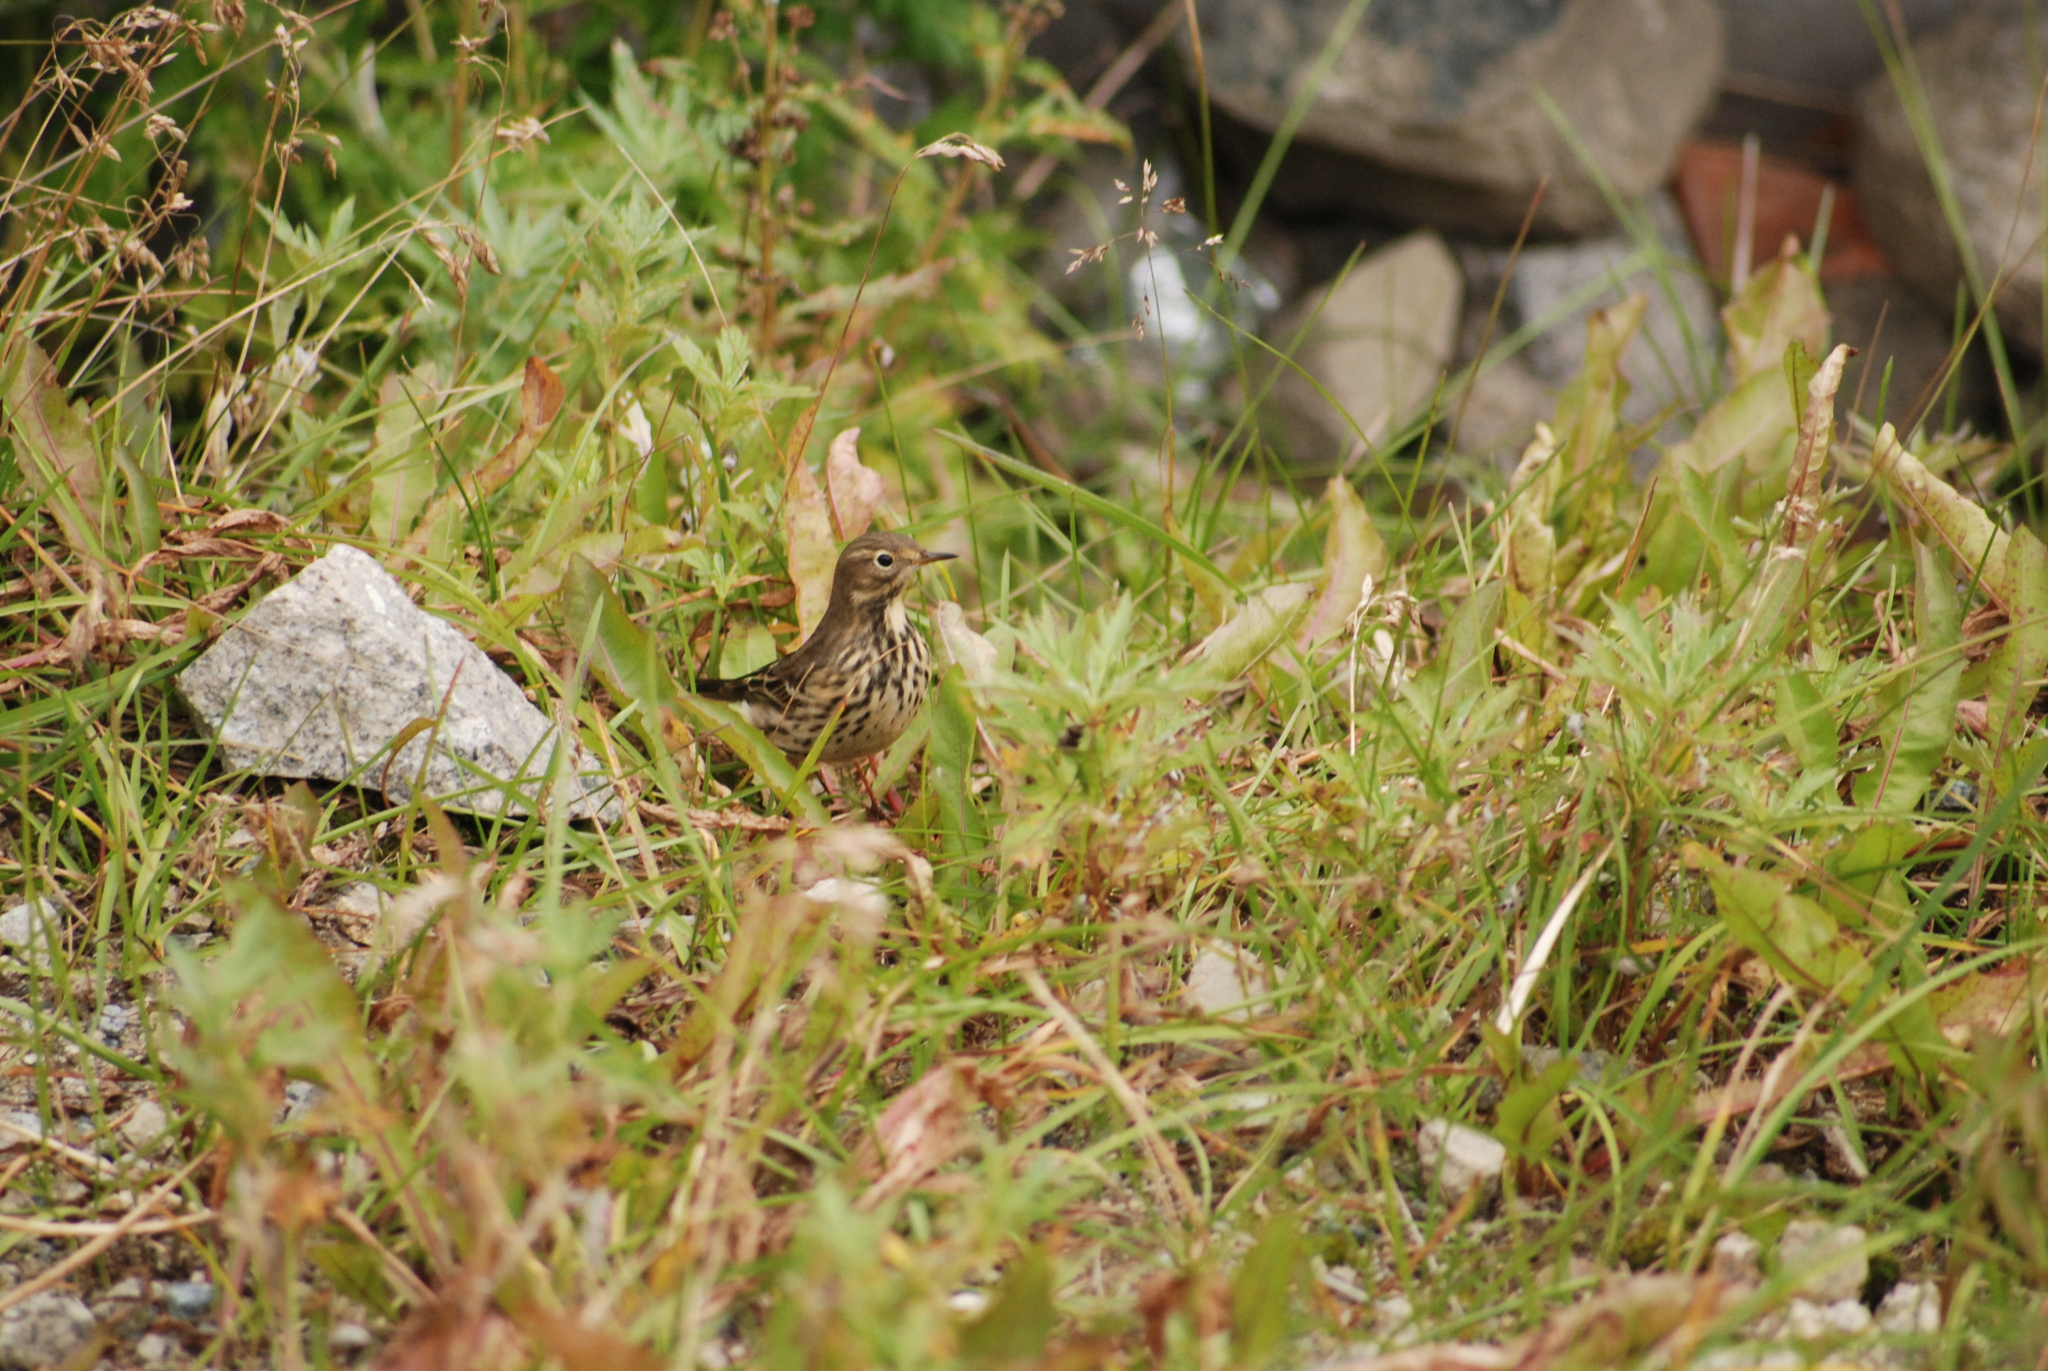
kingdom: Animalia
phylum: Chordata
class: Aves
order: Passeriformes
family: Motacillidae
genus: Anthus
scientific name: Anthus rubescens
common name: Buff-bellied pipit
